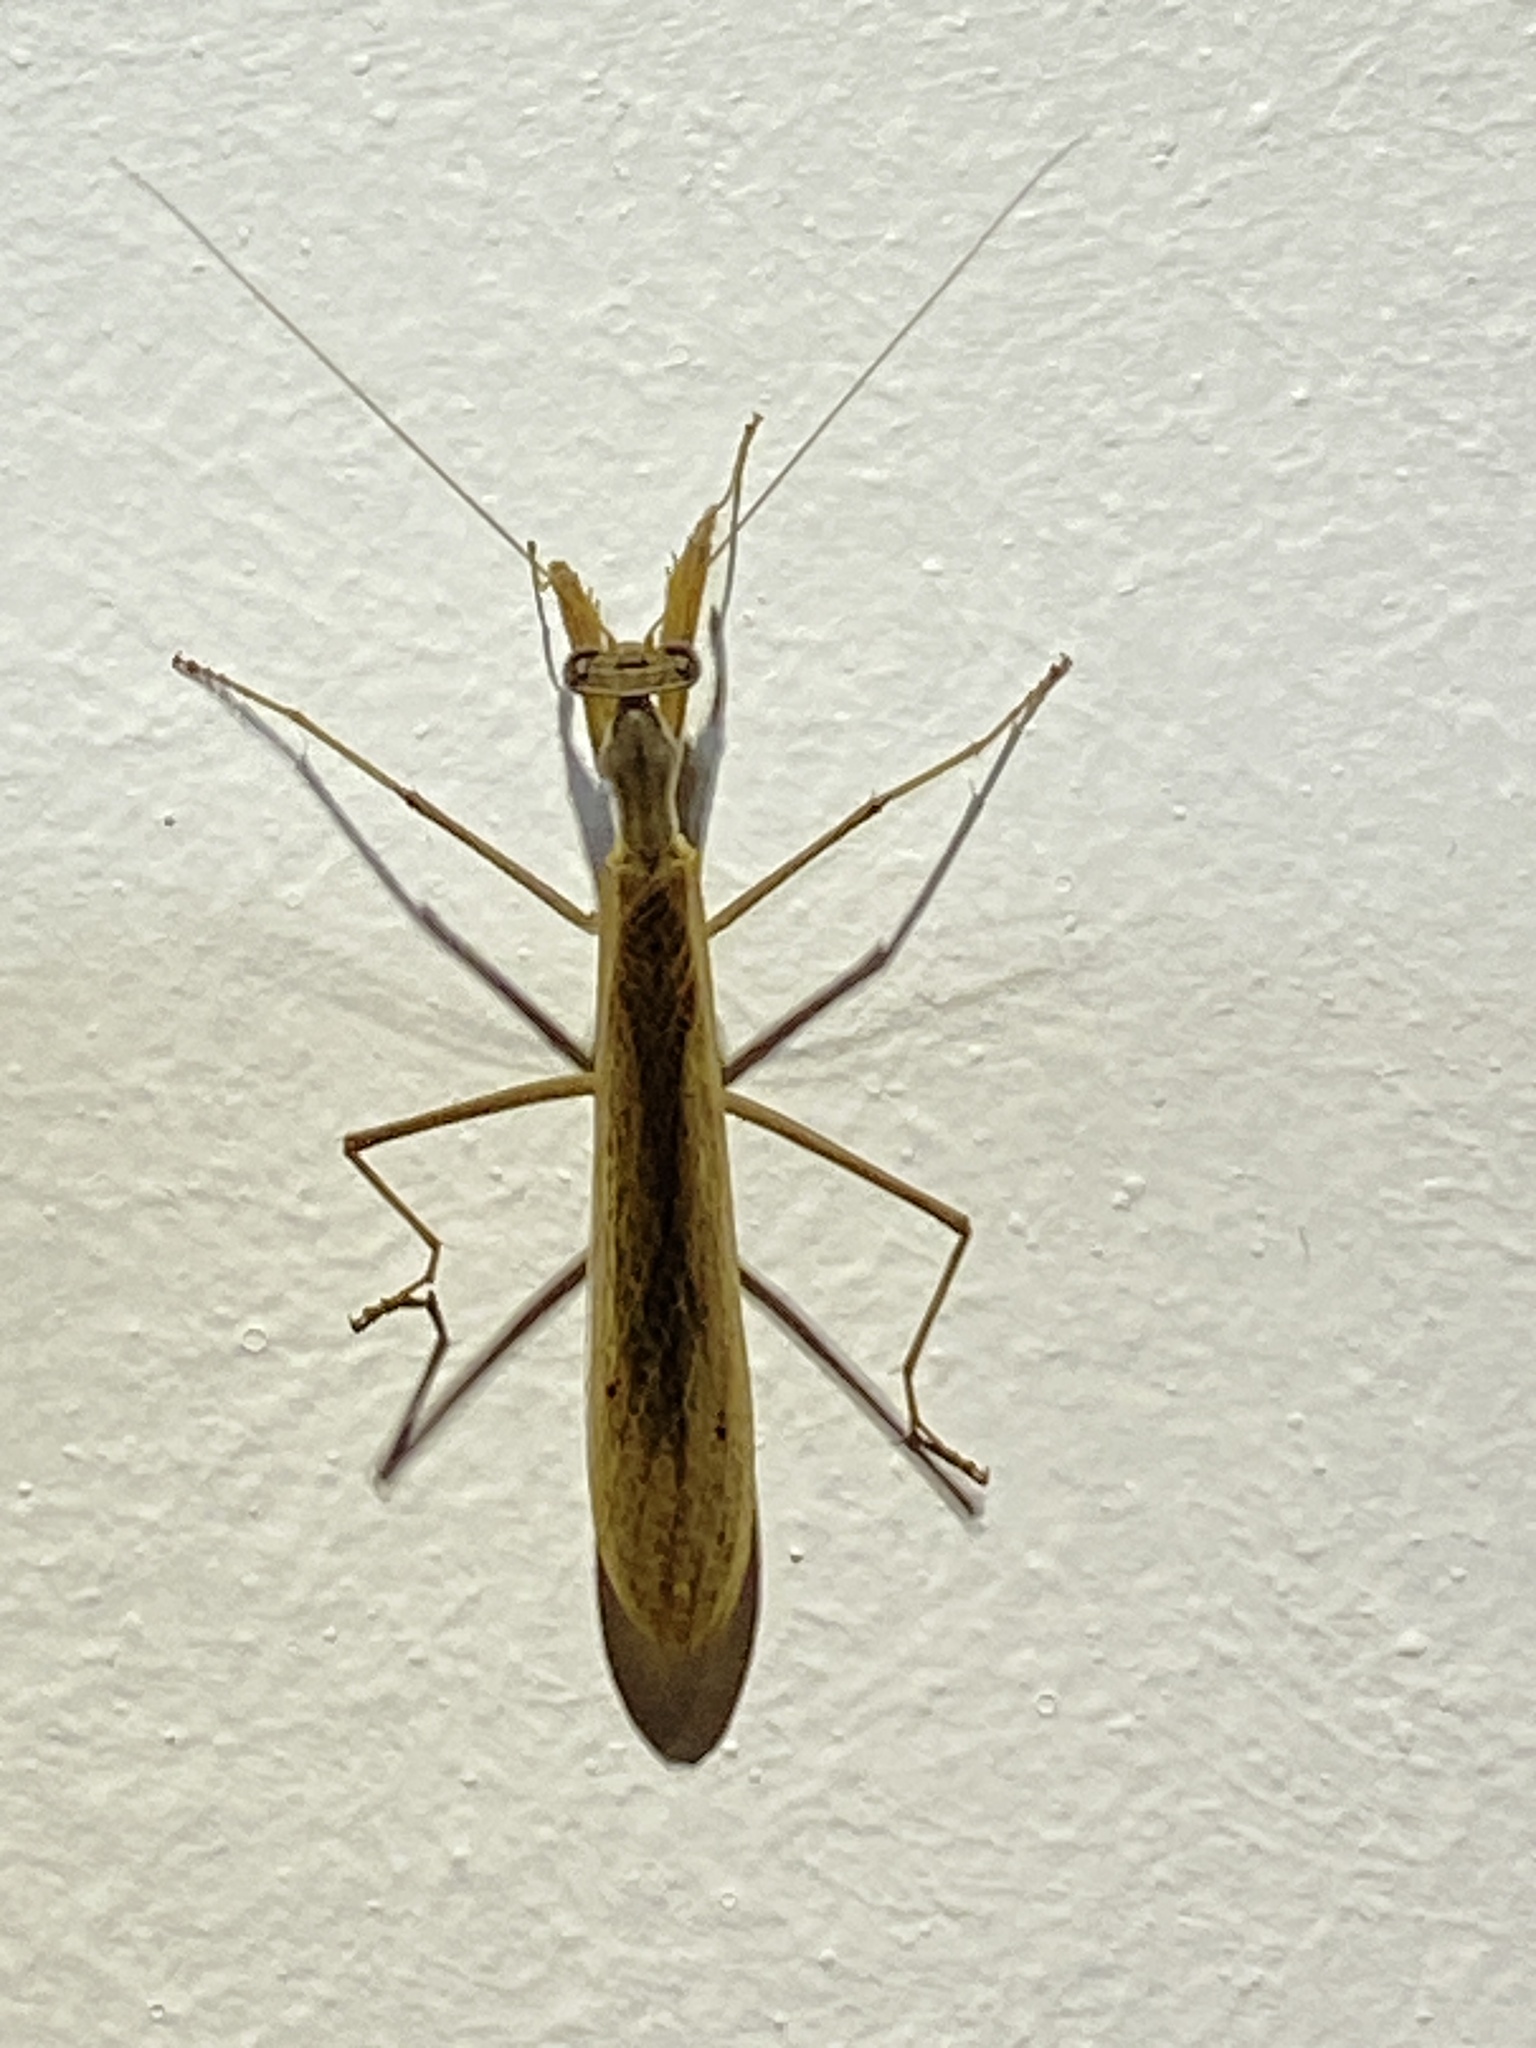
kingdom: Animalia
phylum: Arthropoda
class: Insecta
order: Mantodea
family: Chroicopteridae
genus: Ligariella
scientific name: Ligariella bicornuta
